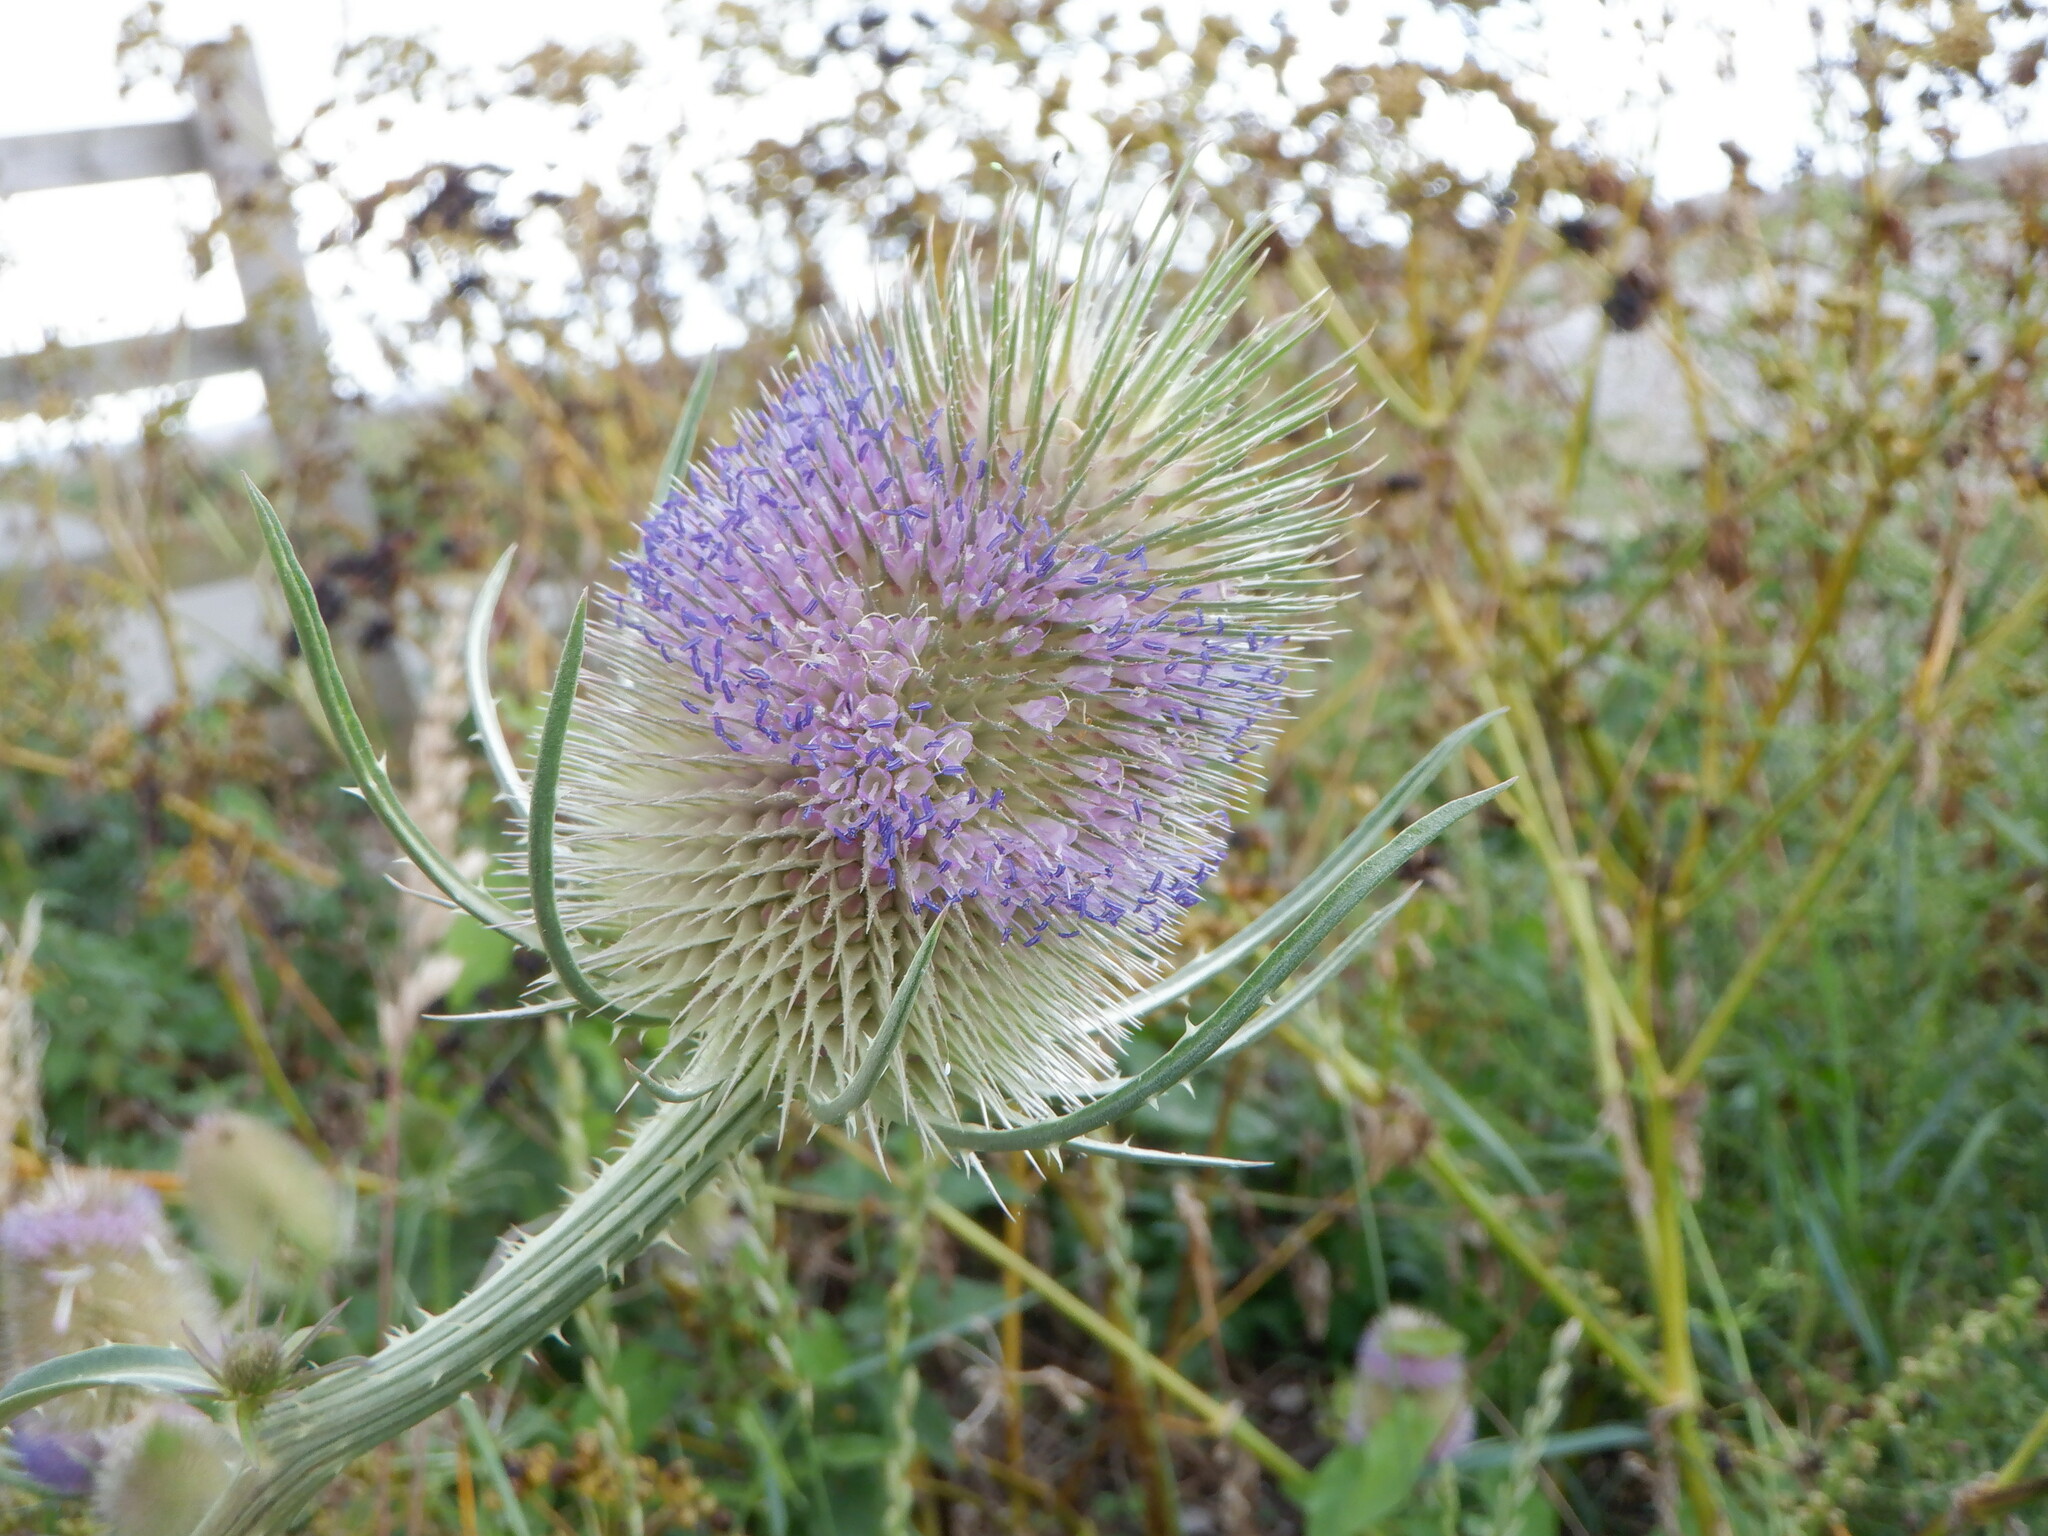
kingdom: Plantae
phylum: Tracheophyta
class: Magnoliopsida
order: Dipsacales
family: Caprifoliaceae
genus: Dipsacus
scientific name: Dipsacus fullonum
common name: Teasel
